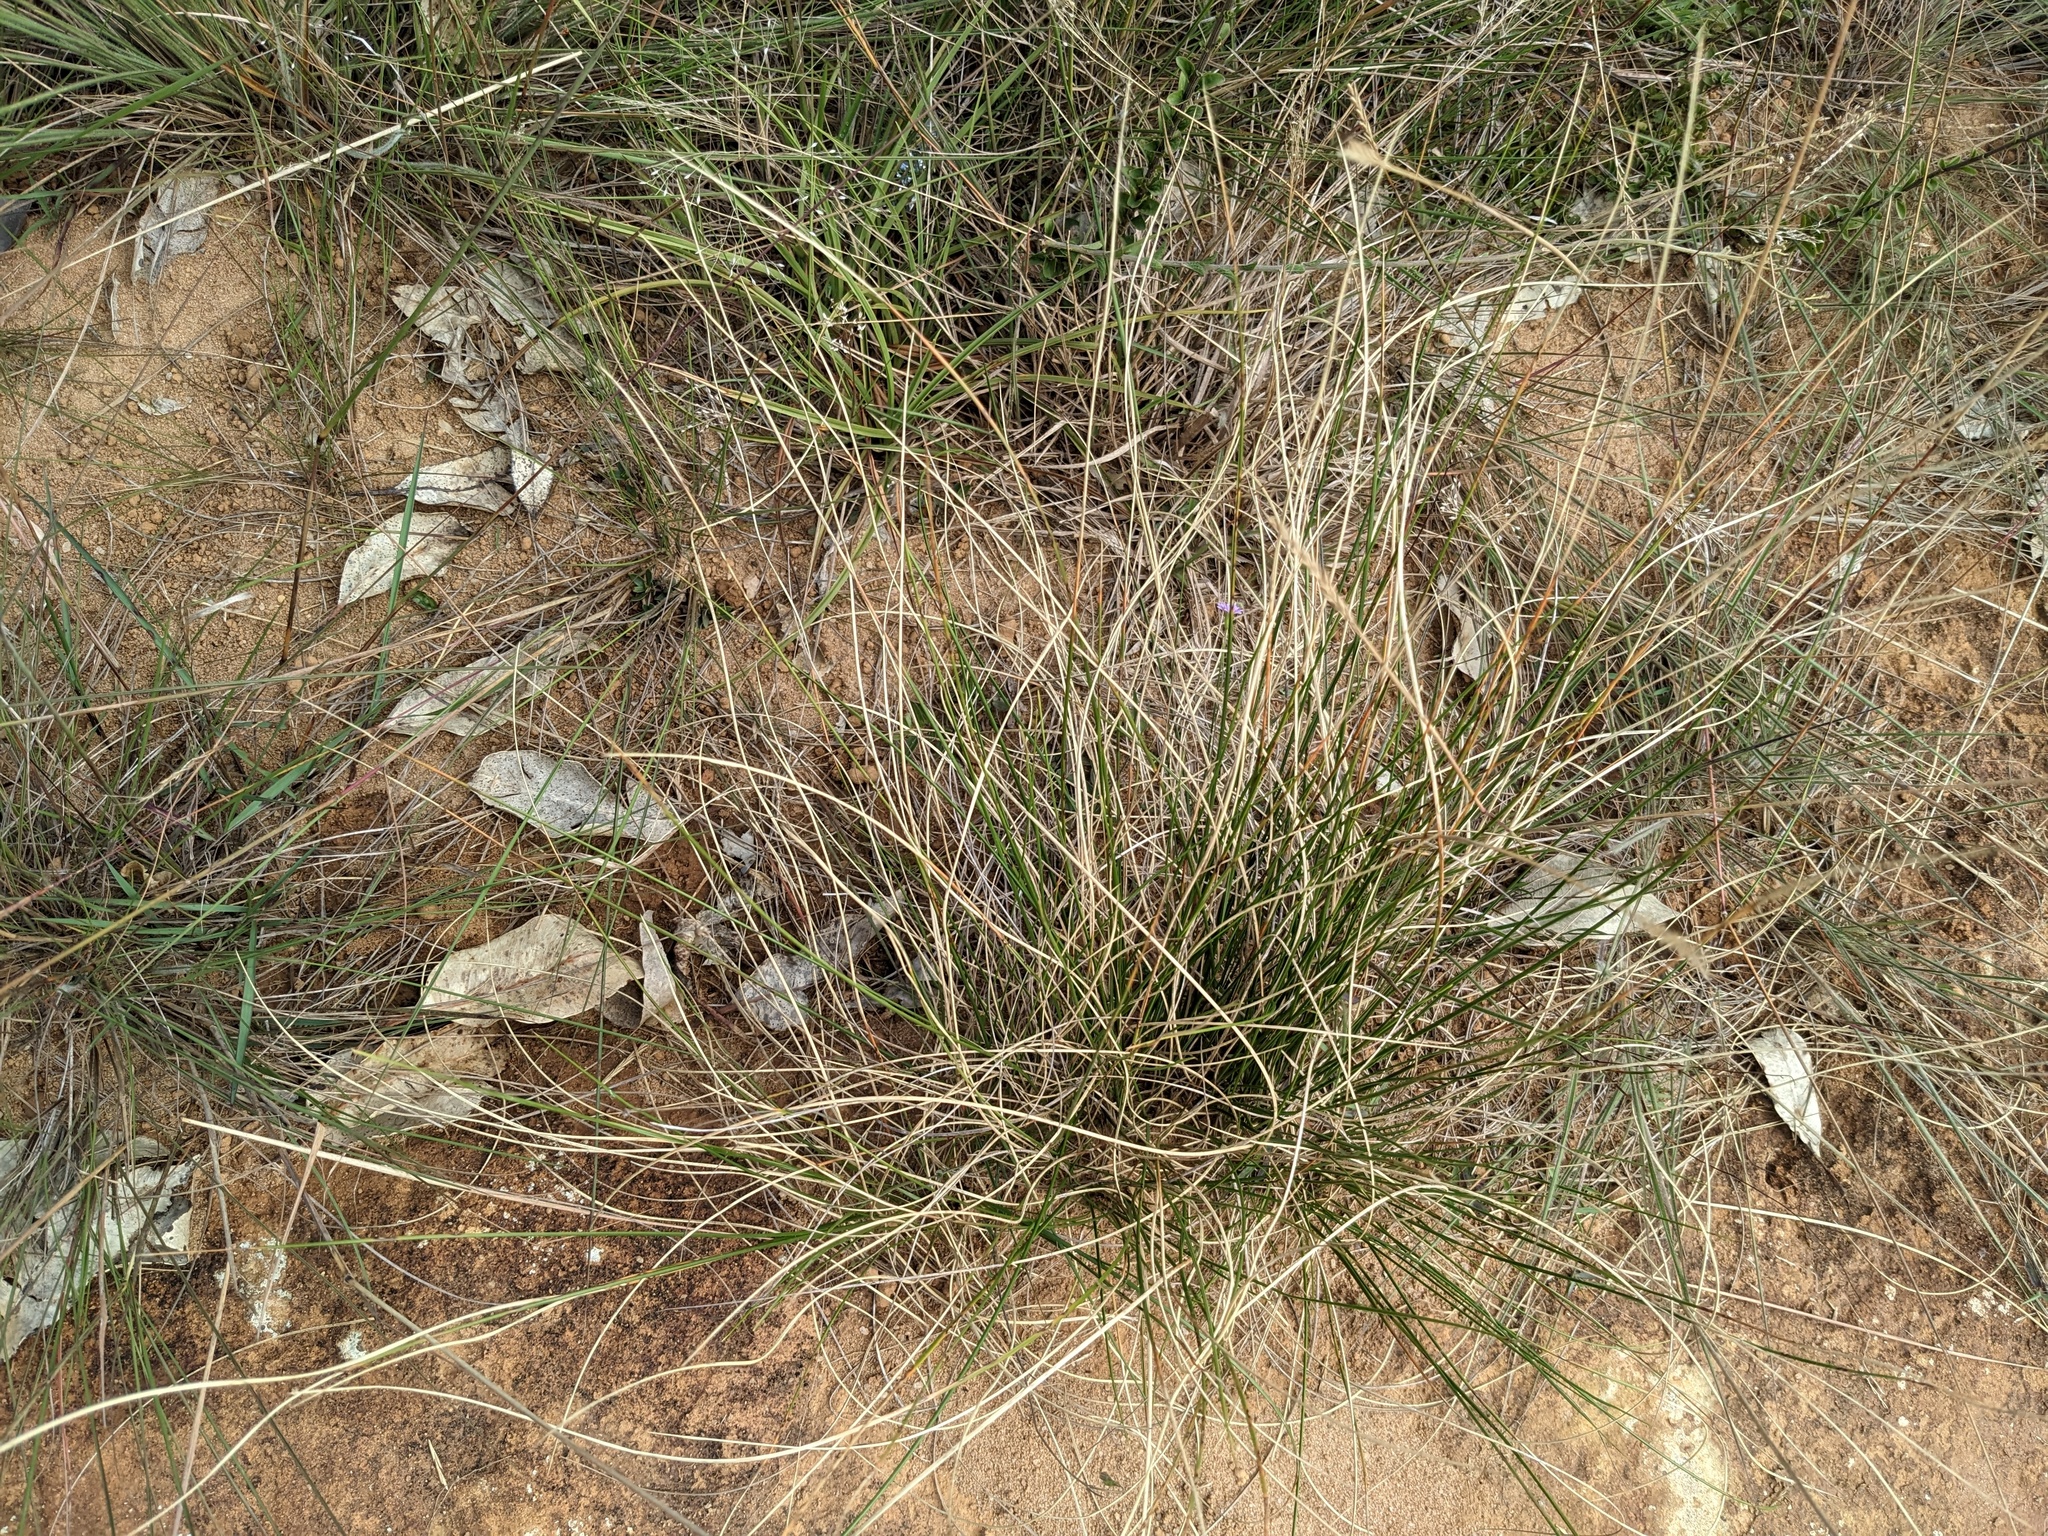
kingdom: Plantae
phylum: Tracheophyta
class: Liliopsida
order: Poales
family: Poaceae
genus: Styppeiochloa
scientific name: Styppeiochloa hitchcockii
